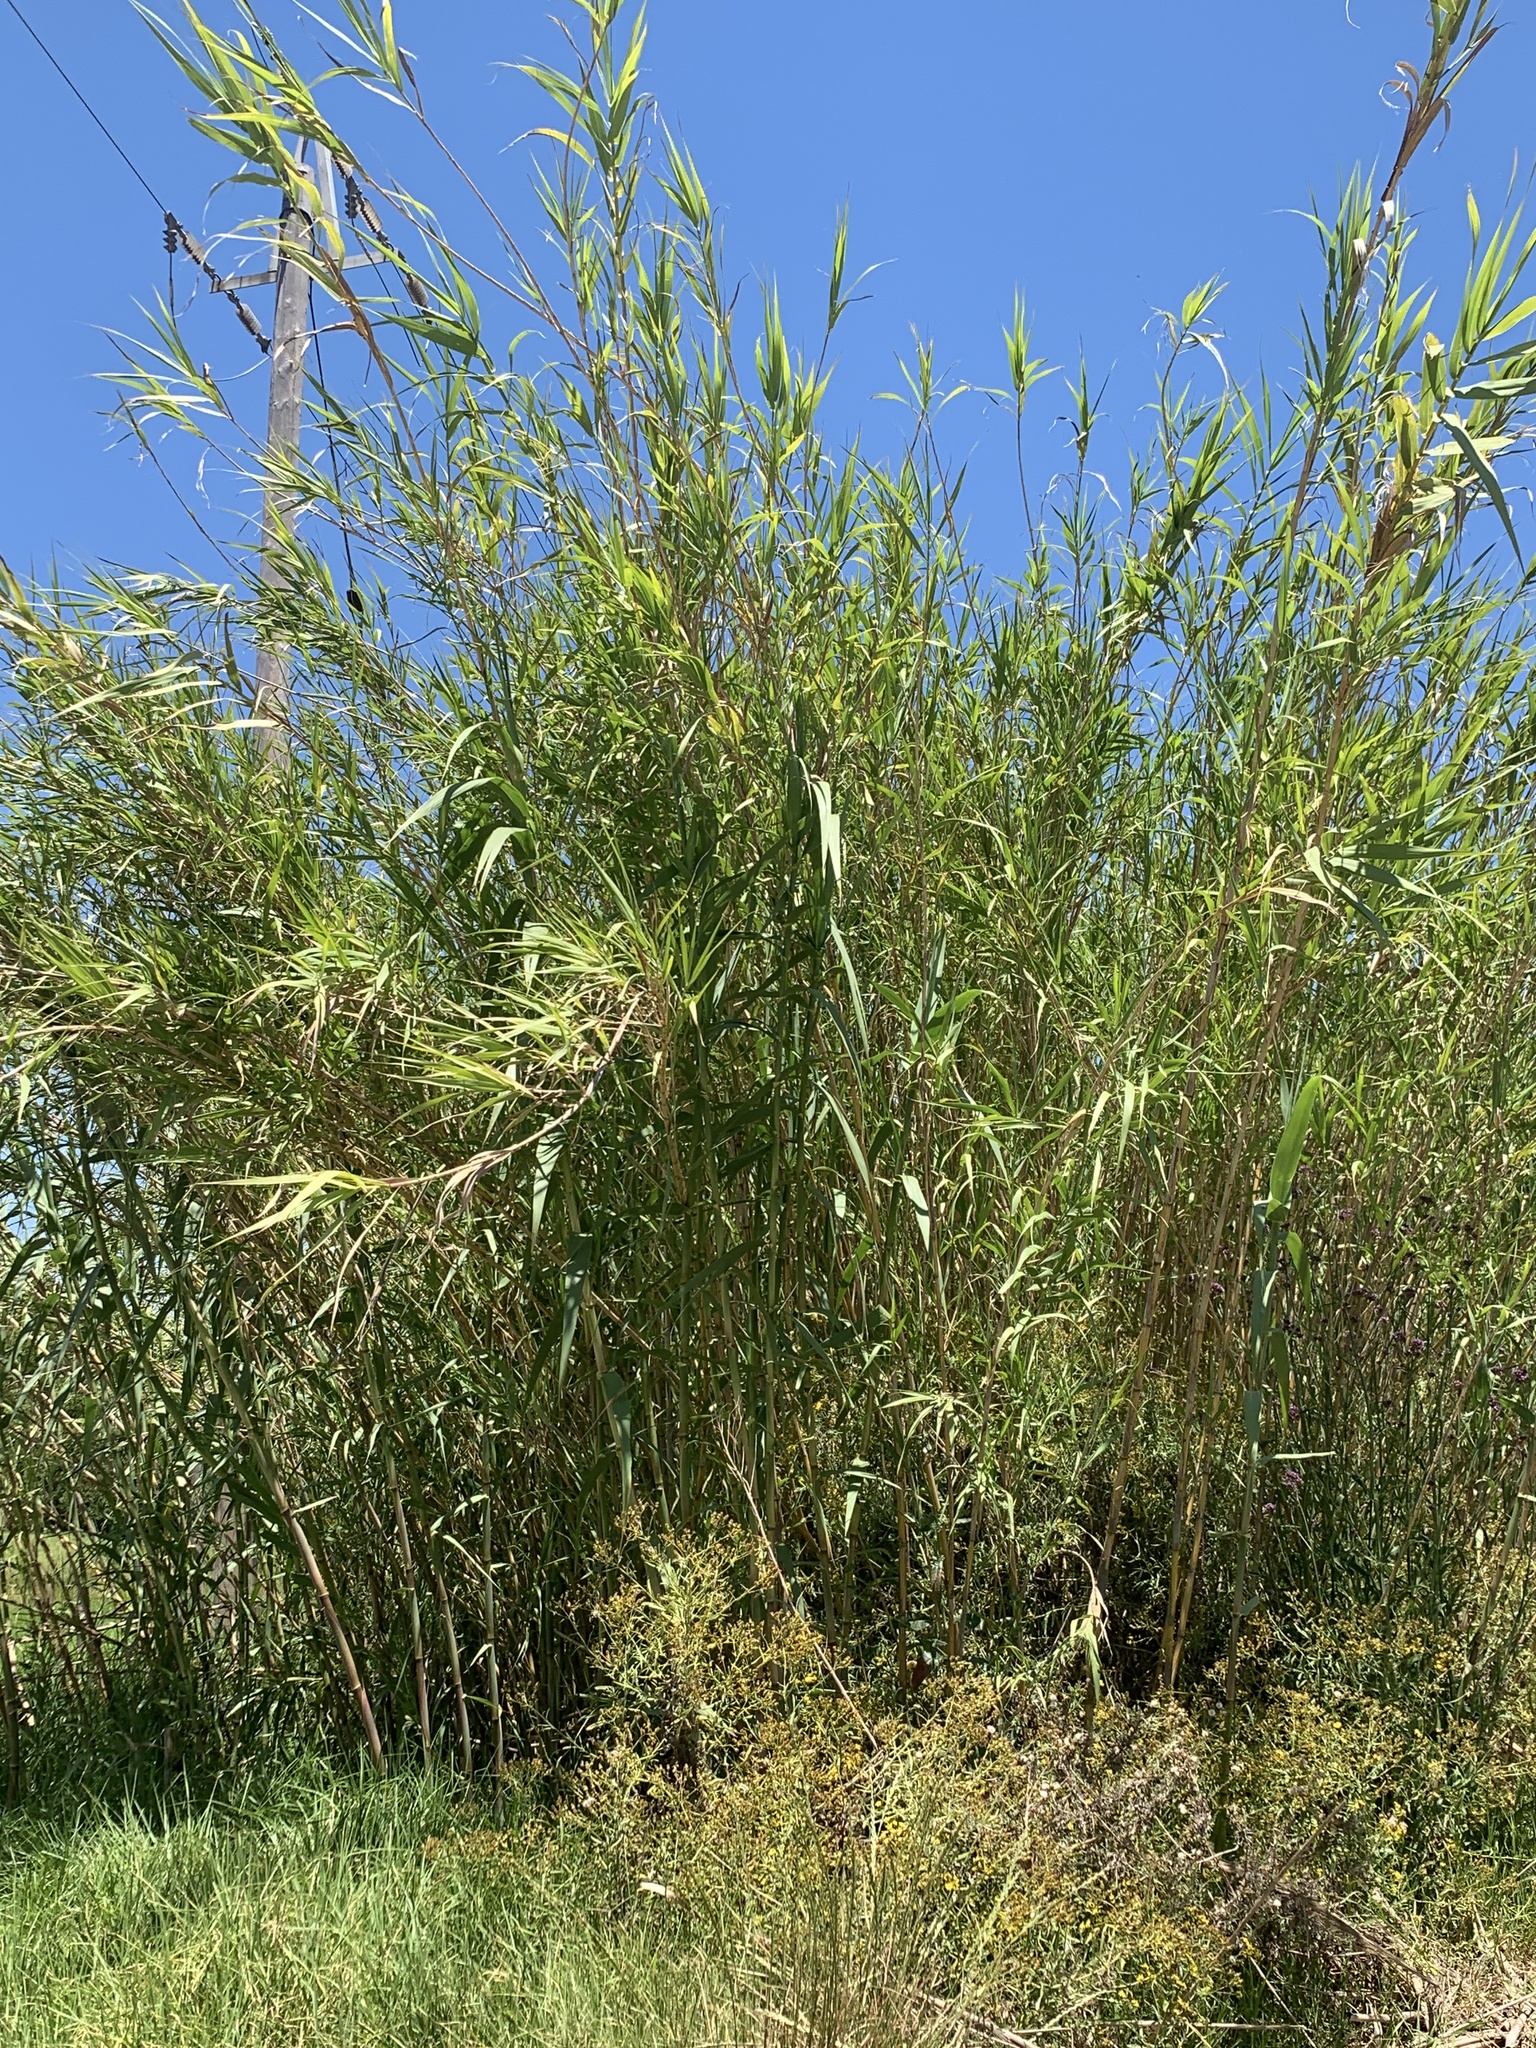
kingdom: Plantae
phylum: Tracheophyta
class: Liliopsida
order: Poales
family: Poaceae
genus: Arundo
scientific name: Arundo donax
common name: Giant reed
